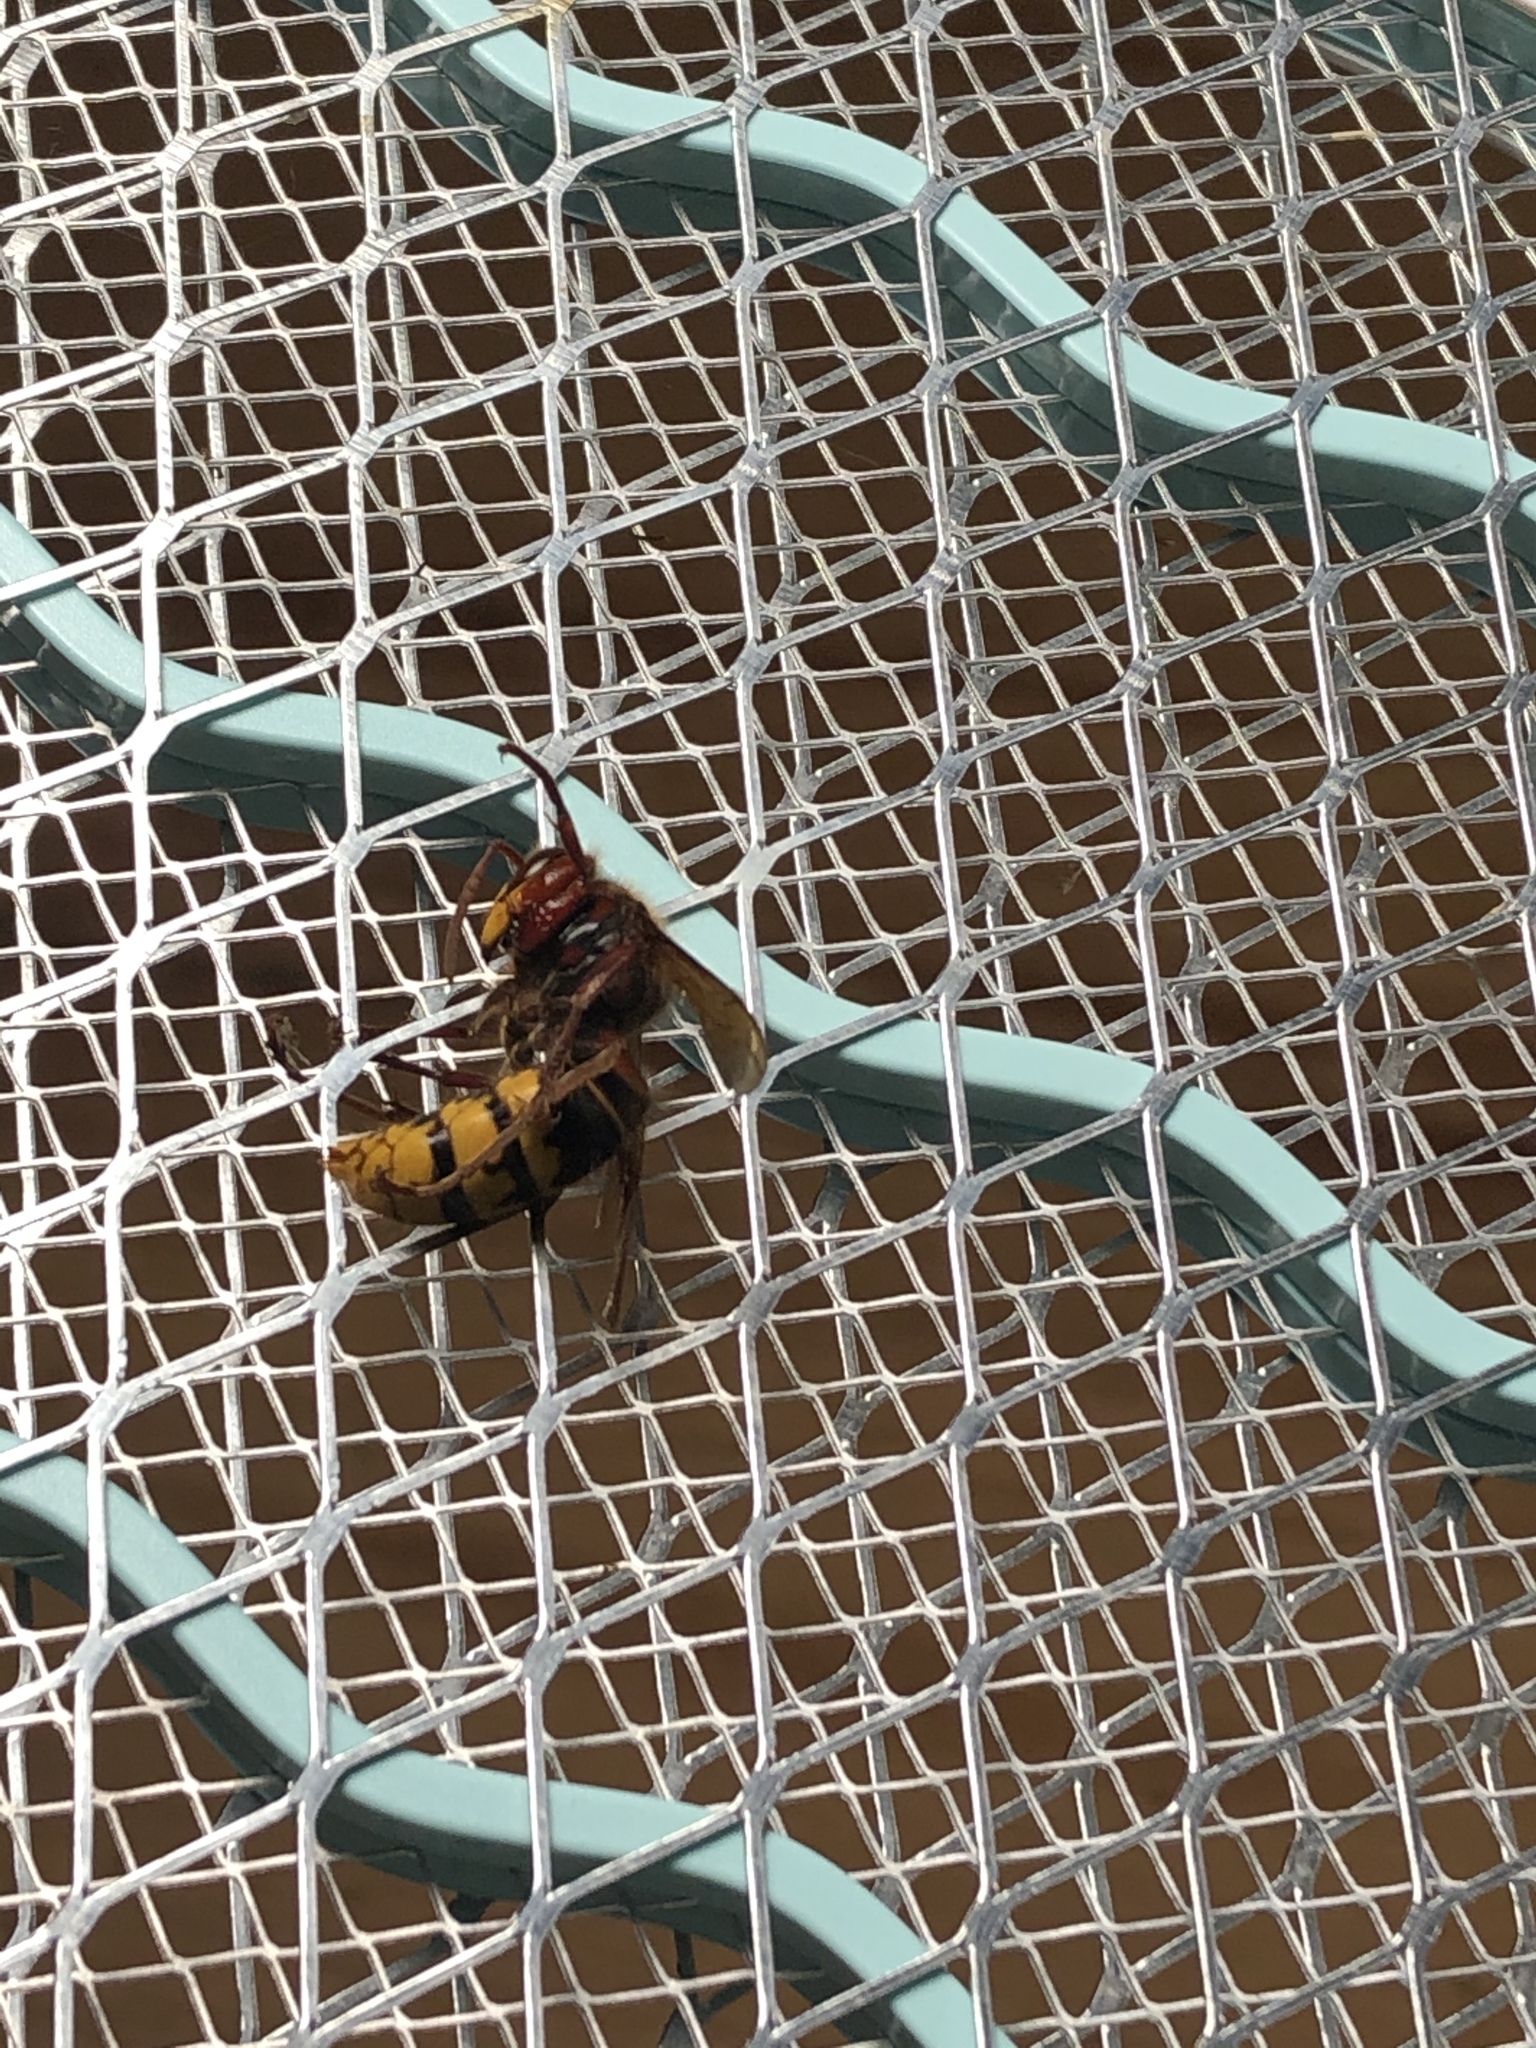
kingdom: Animalia
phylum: Arthropoda
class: Insecta
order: Hymenoptera
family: Vespidae
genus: Vespa
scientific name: Vespa crabro
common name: Hornet
